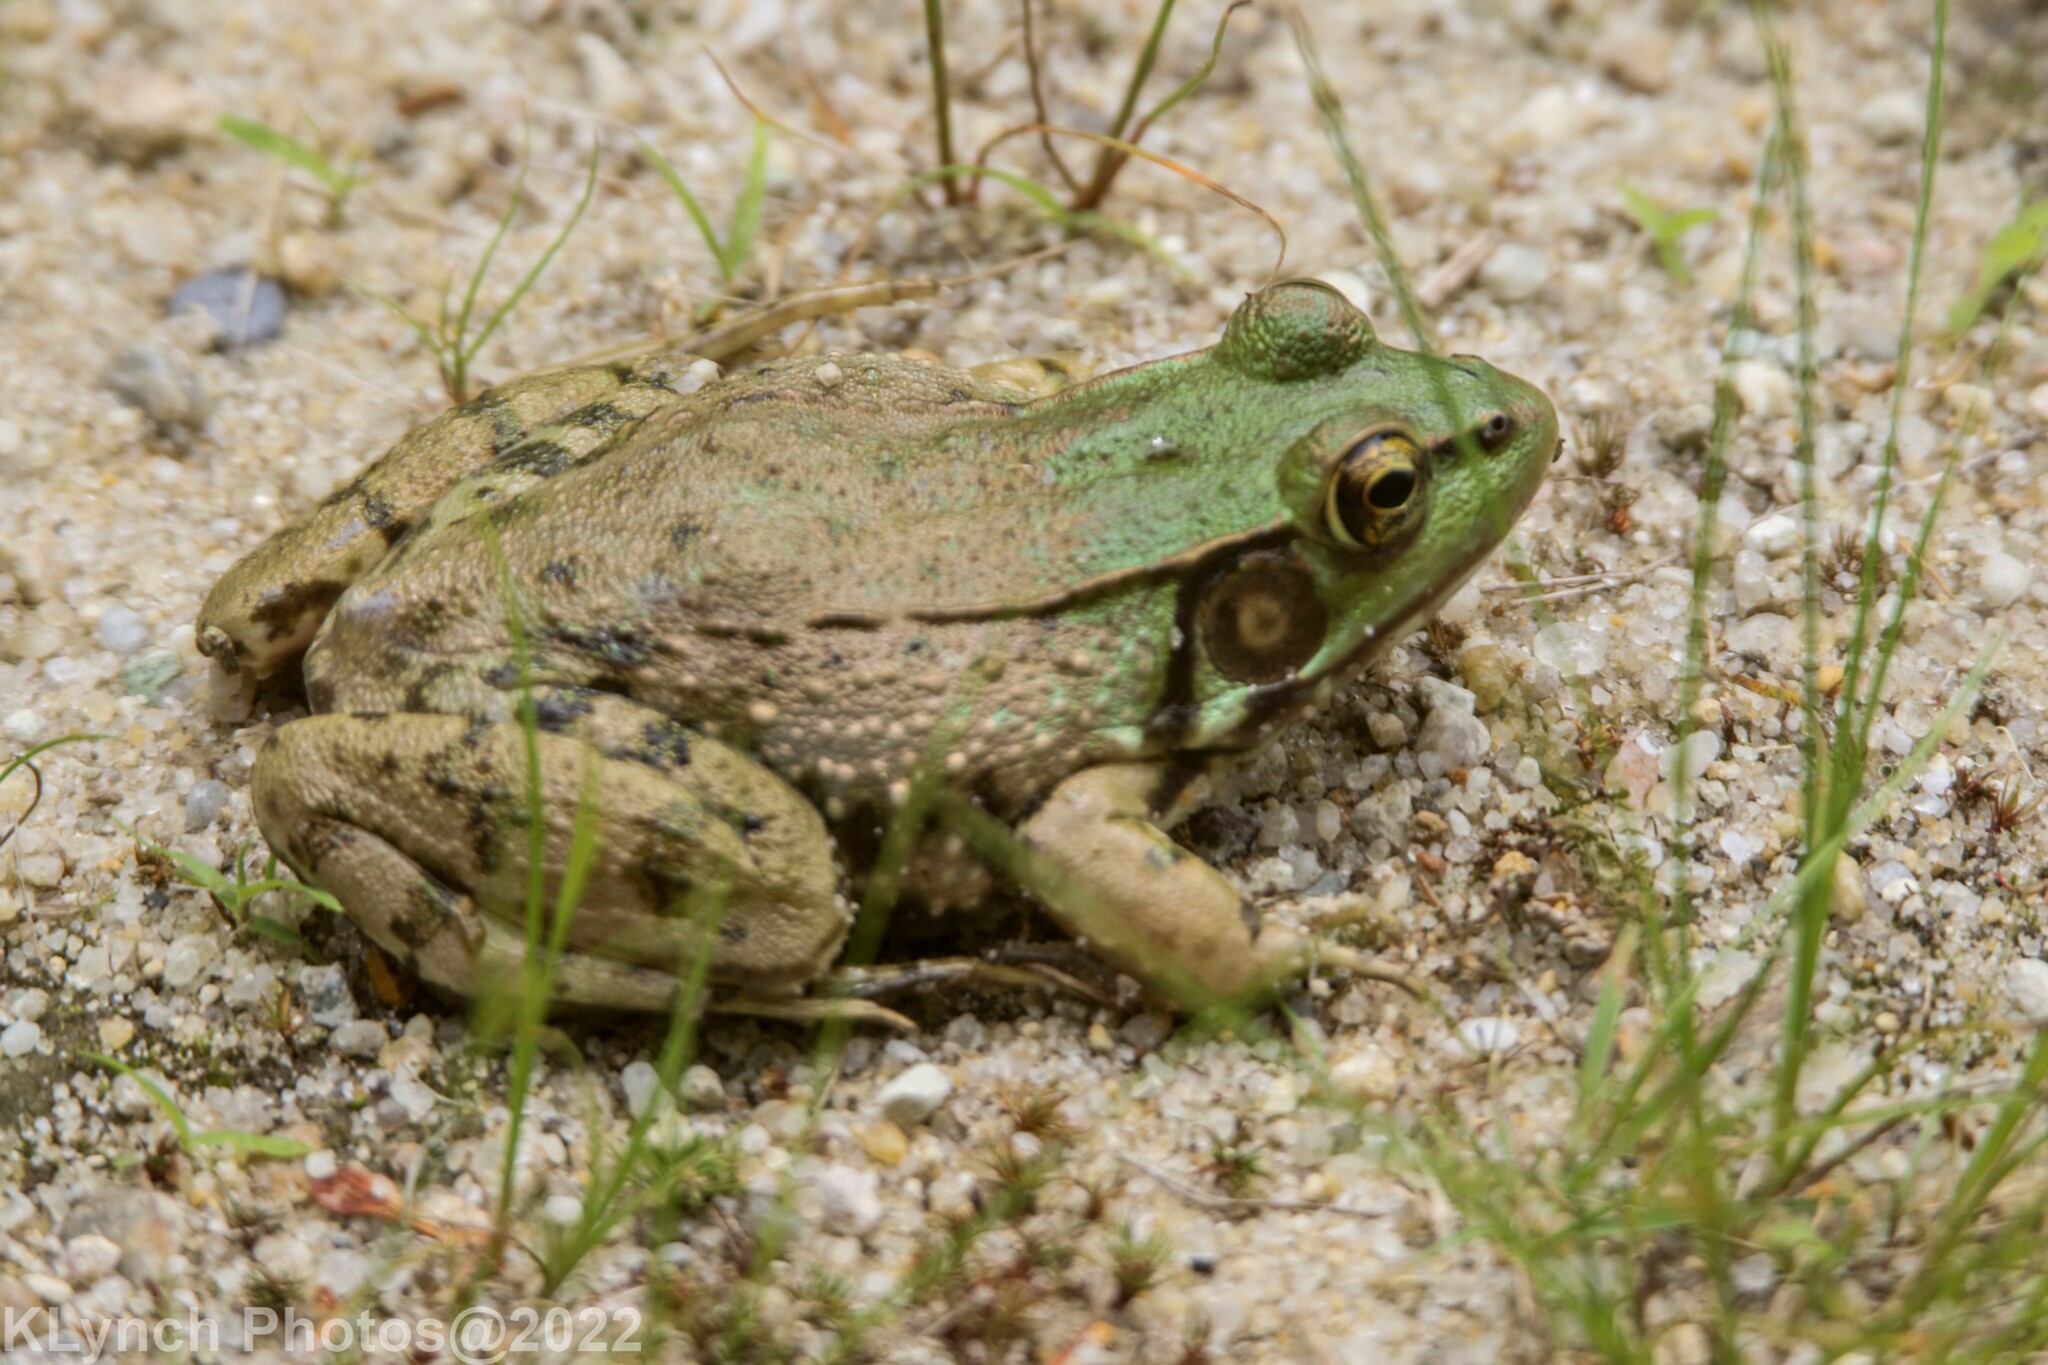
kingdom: Animalia
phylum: Chordata
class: Amphibia
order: Anura
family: Ranidae
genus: Lithobates
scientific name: Lithobates clamitans
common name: Green frog
